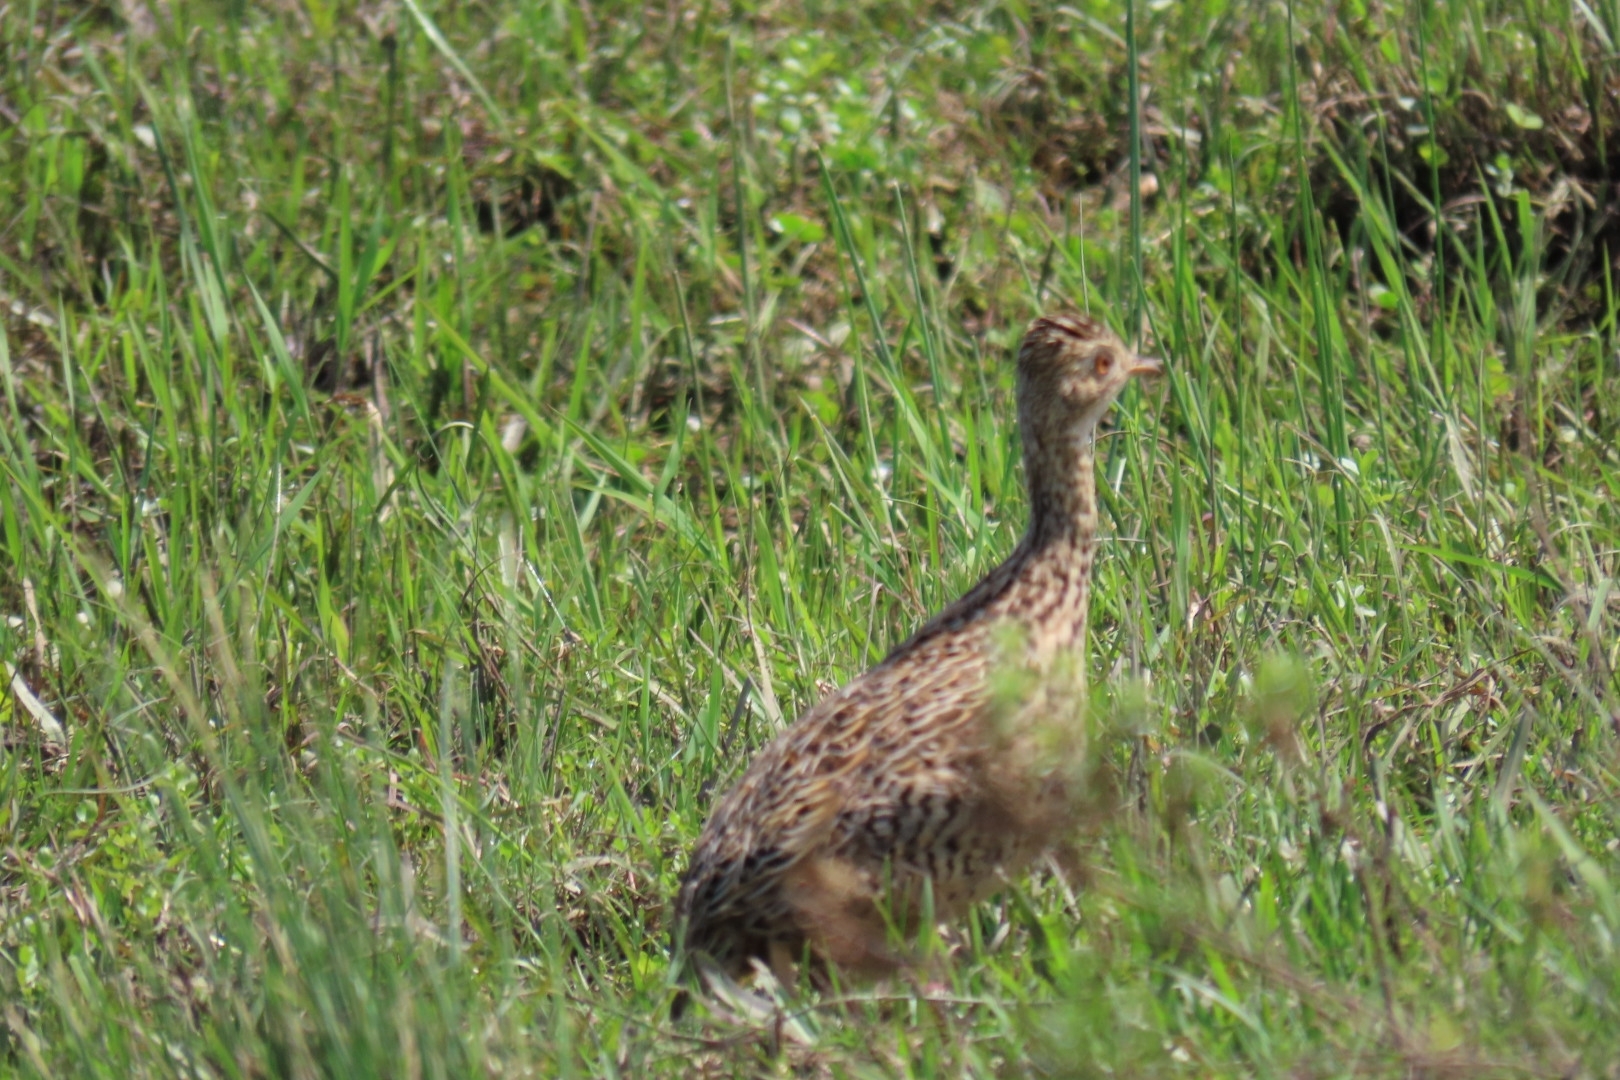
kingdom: Animalia
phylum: Chordata
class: Aves
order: Tinamiformes
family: Tinamidae
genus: Nothura
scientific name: Nothura maculosa
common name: Spotted nothura
